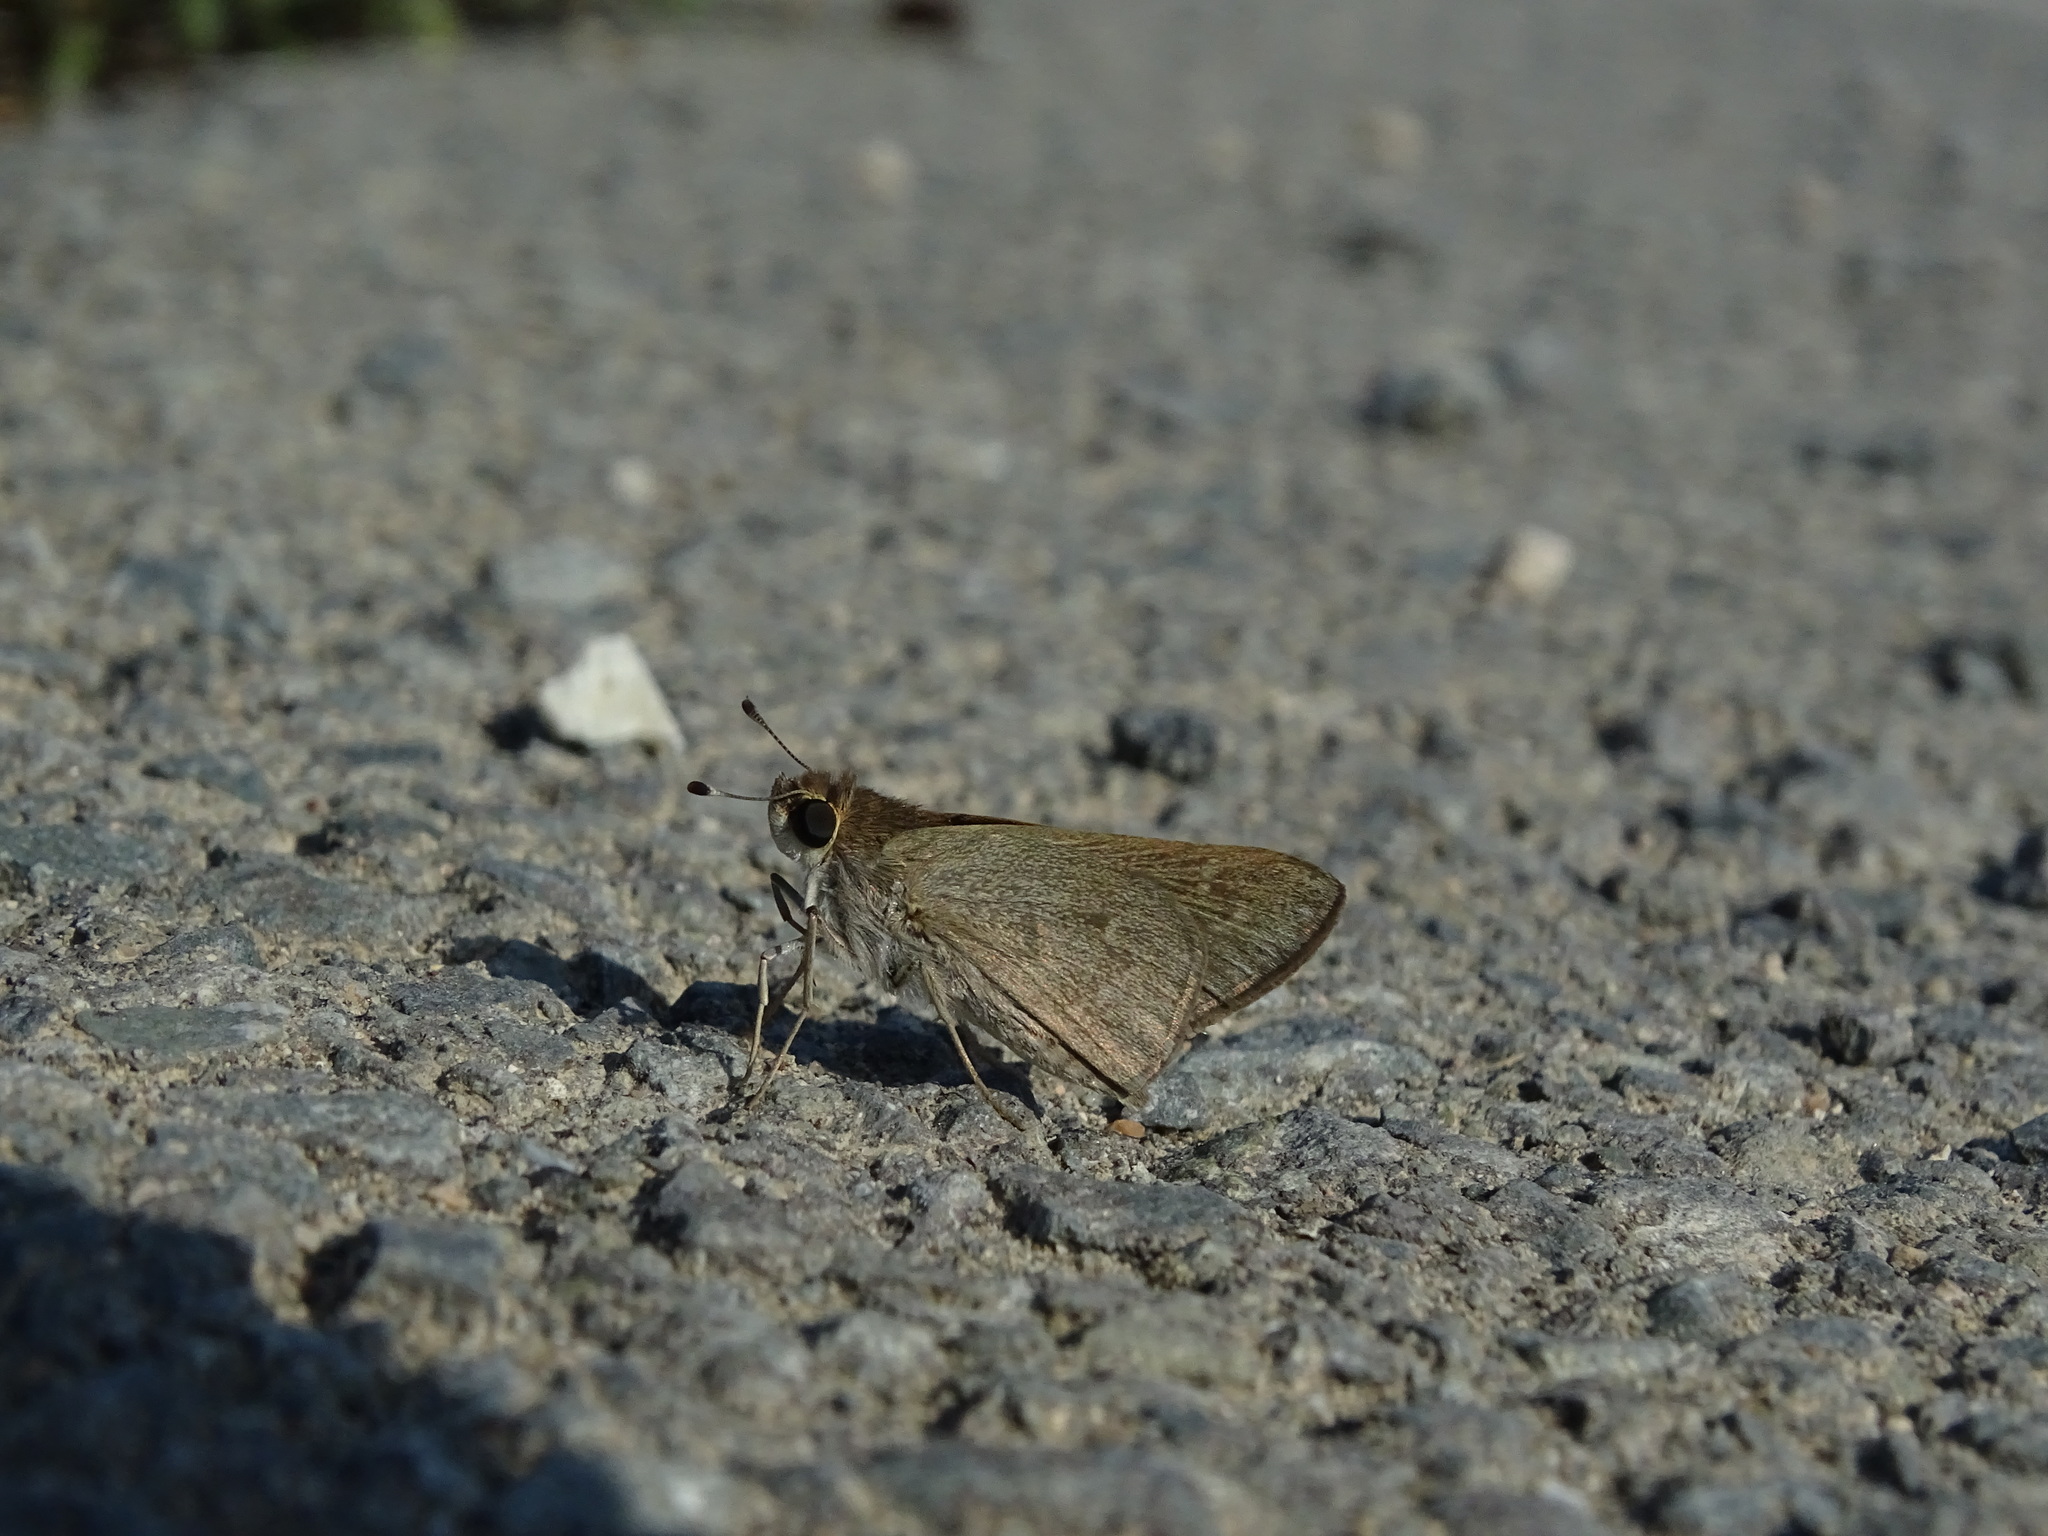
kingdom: Animalia
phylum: Arthropoda
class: Insecta
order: Lepidoptera
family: Hesperiidae
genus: Gegenes
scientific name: Gegenes pumilio
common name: Pigmy skipper
